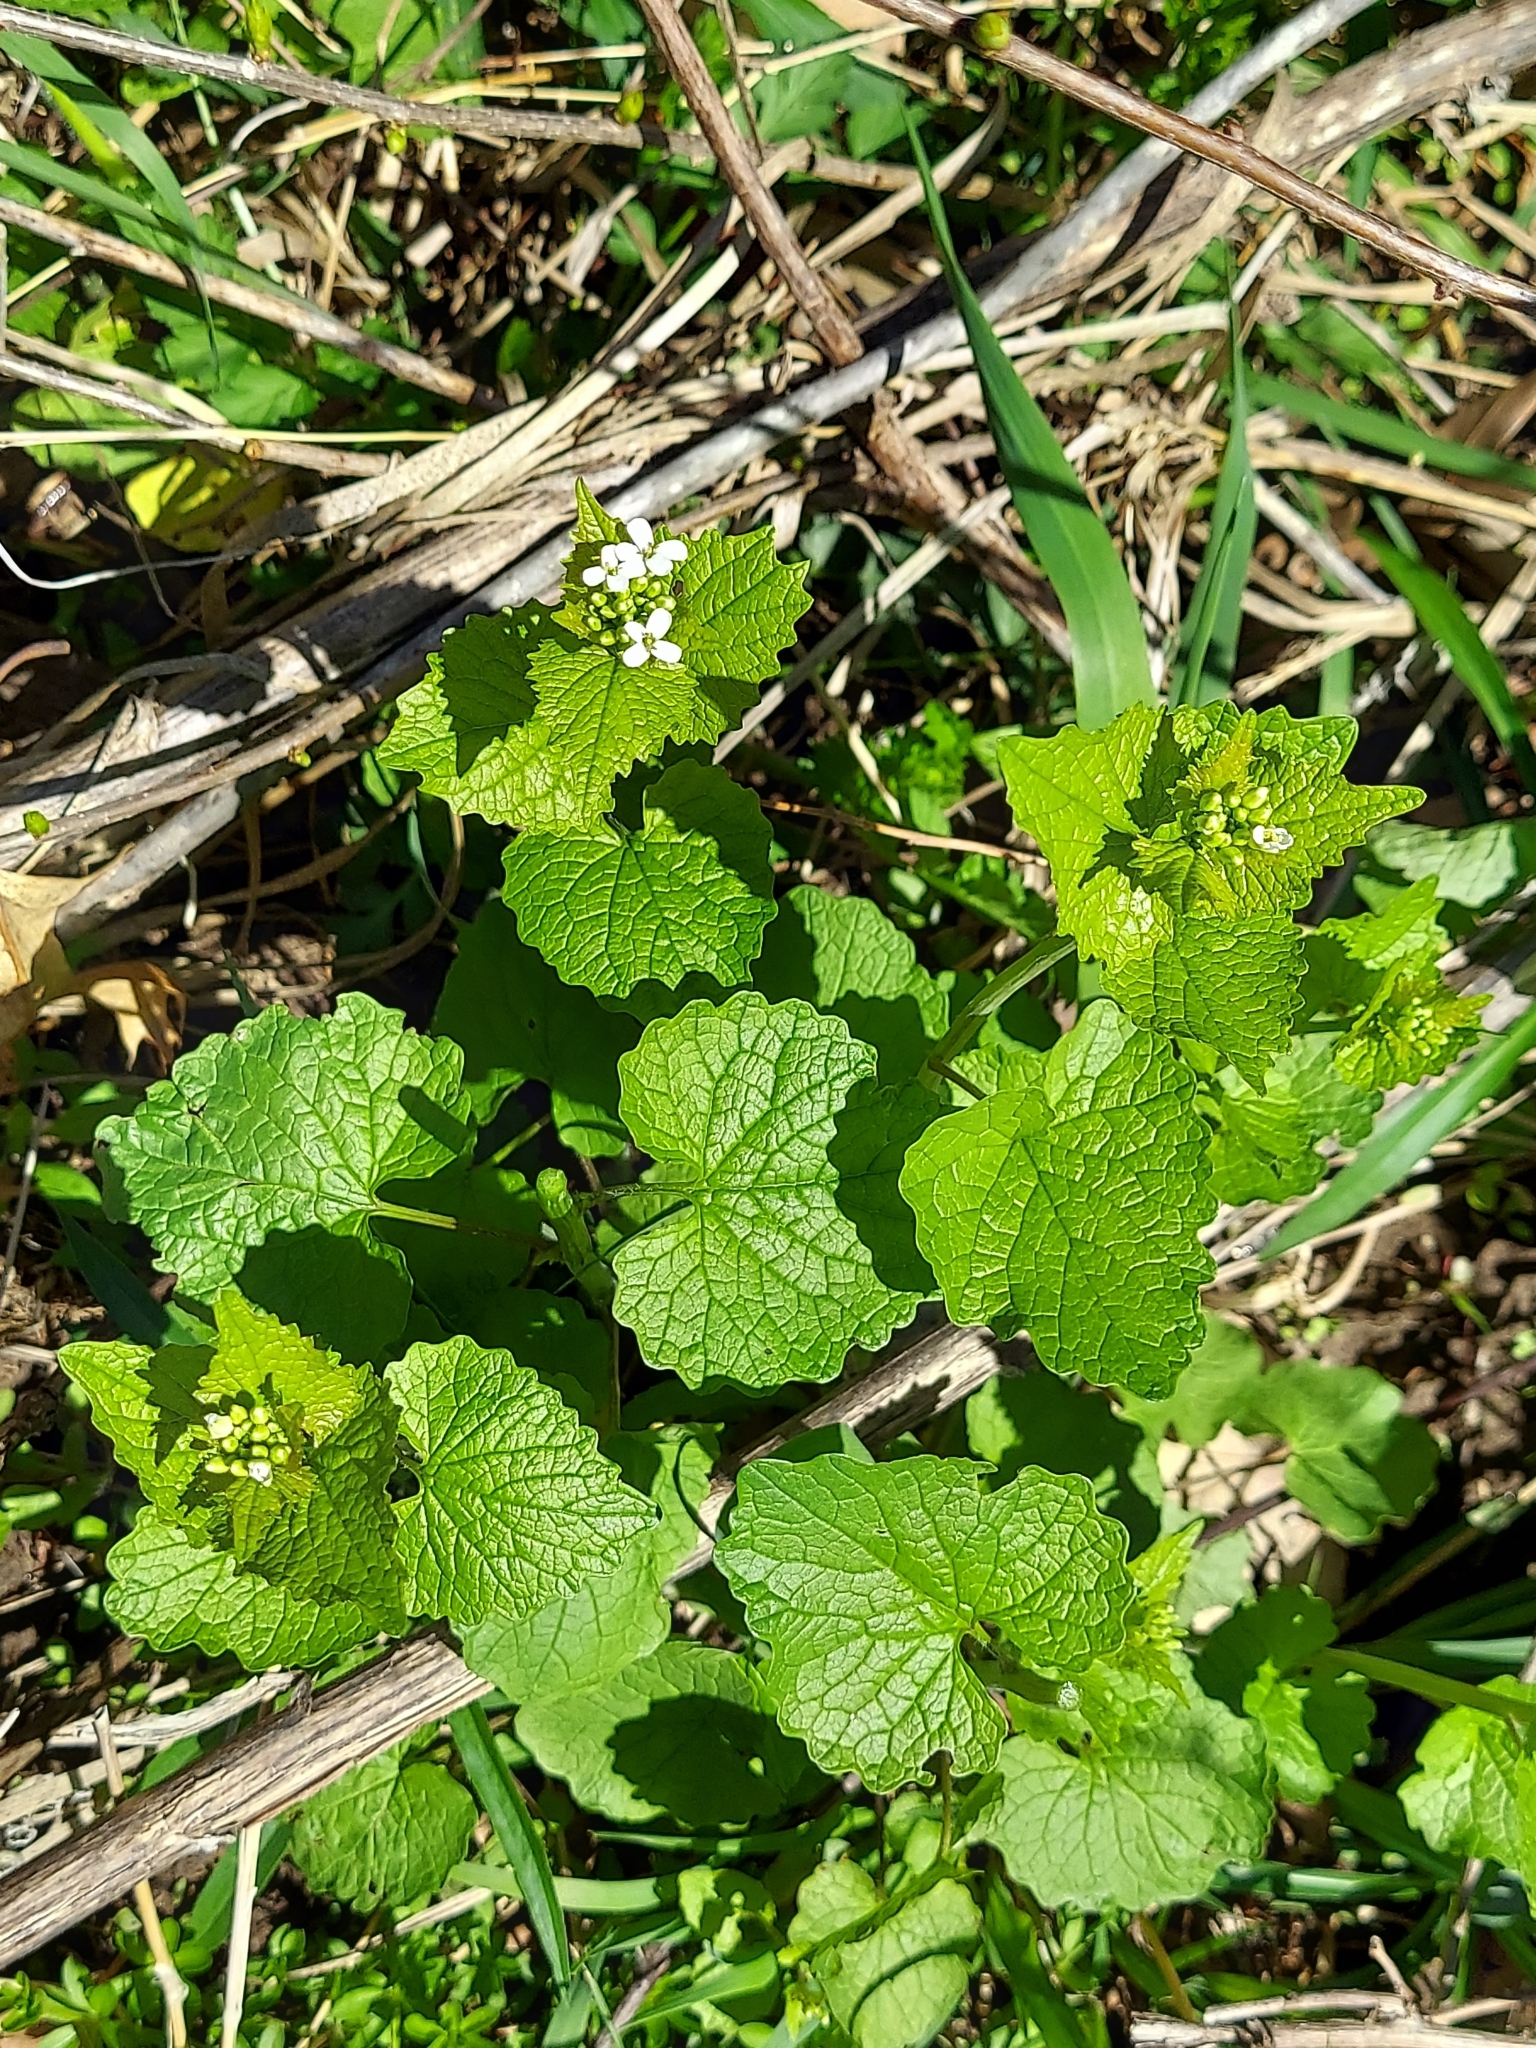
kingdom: Plantae
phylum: Tracheophyta
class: Magnoliopsida
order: Brassicales
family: Brassicaceae
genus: Alliaria
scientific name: Alliaria petiolata
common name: Garlic mustard
